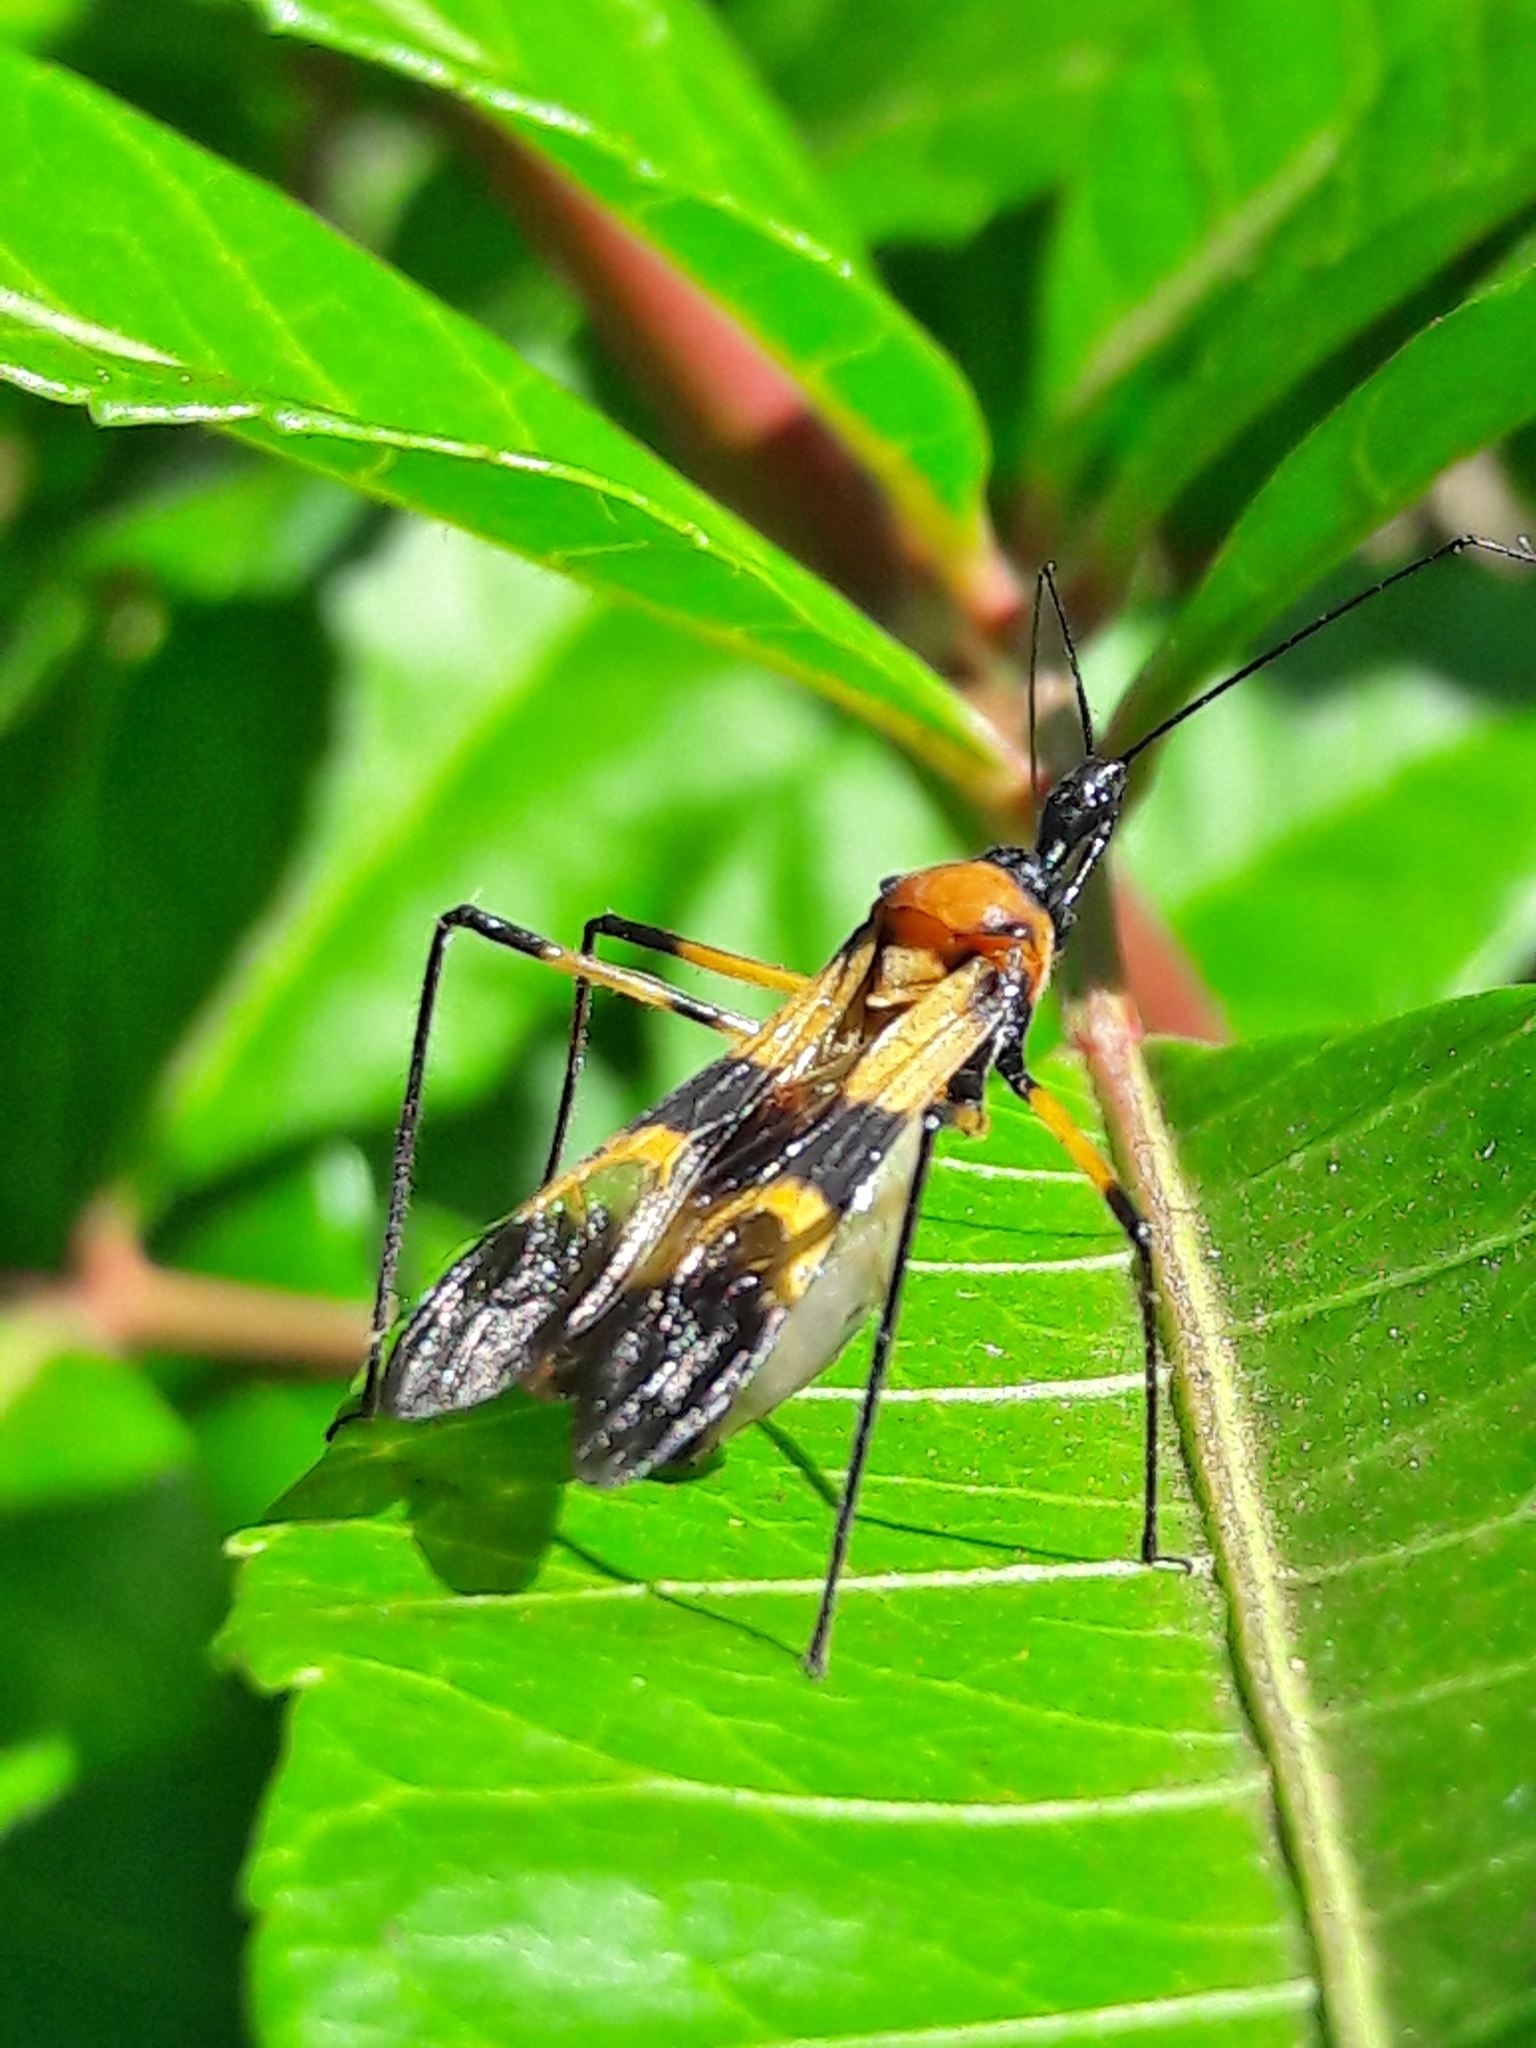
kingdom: Animalia
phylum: Arthropoda
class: Insecta
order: Hemiptera
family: Reduviidae
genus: Zelus
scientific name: Zelus errans
